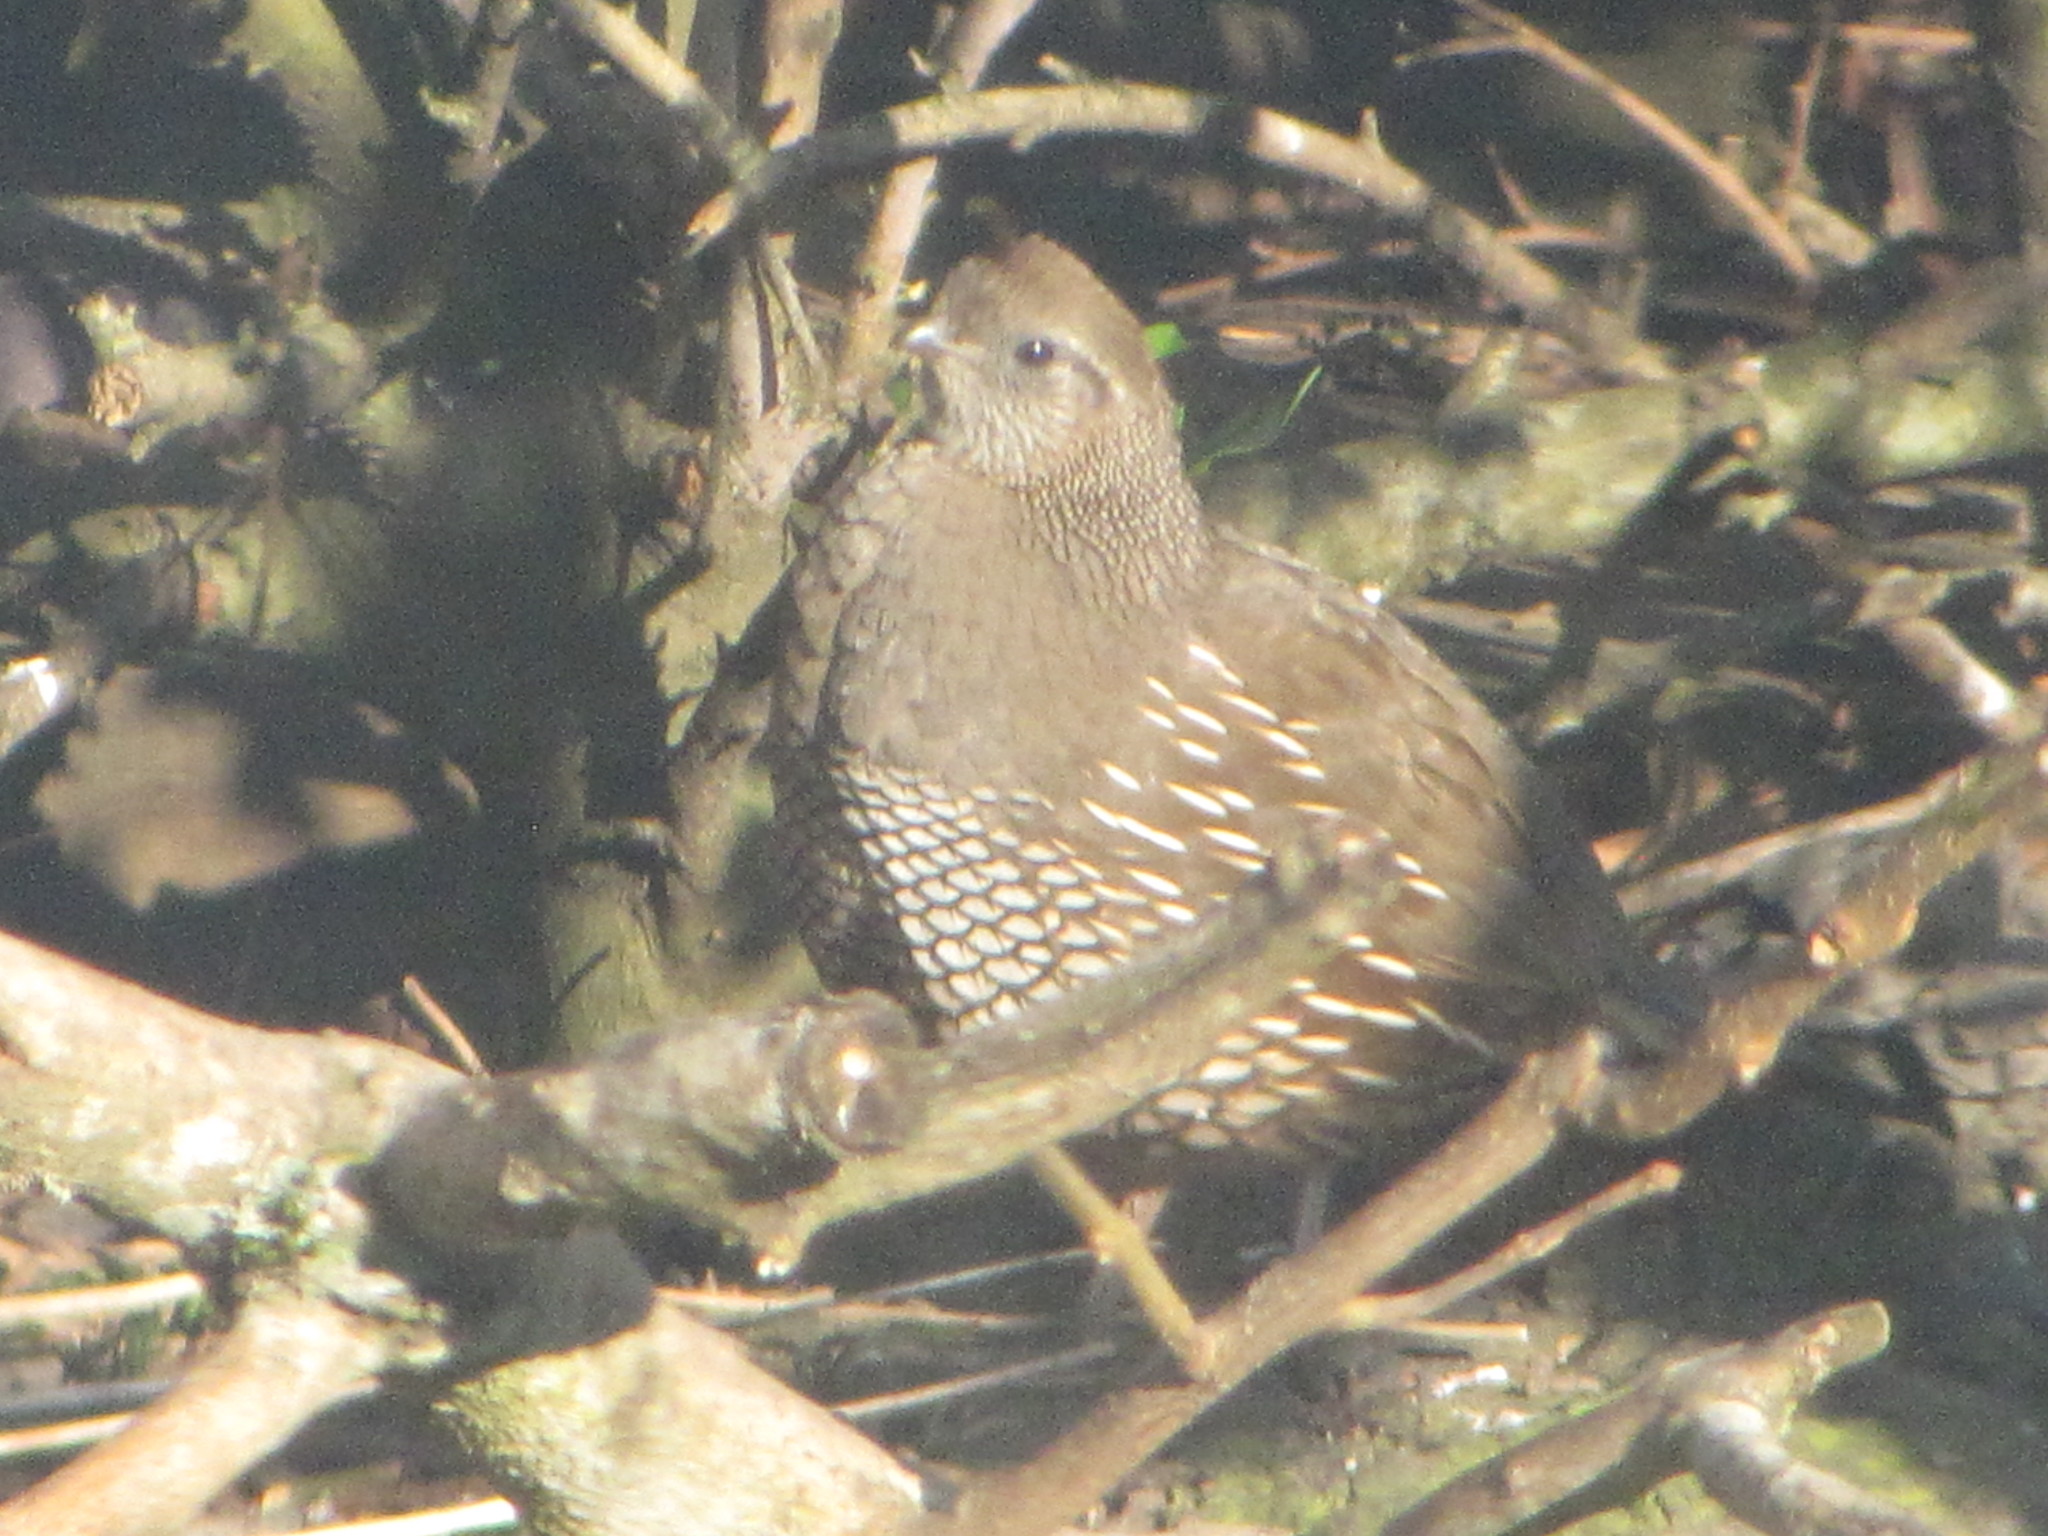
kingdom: Animalia
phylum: Chordata
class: Aves
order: Galliformes
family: Odontophoridae
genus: Callipepla
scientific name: Callipepla californica
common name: California quail
